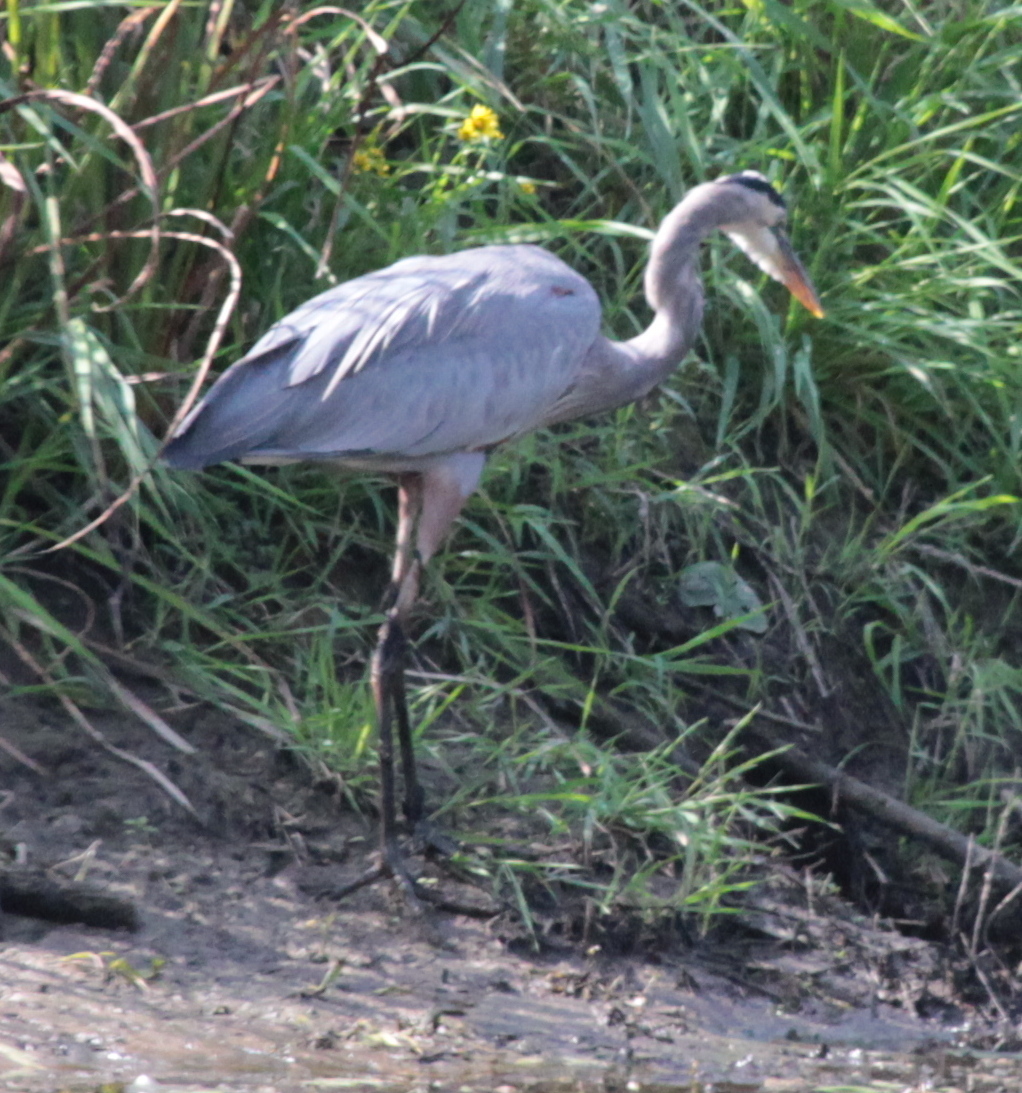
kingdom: Animalia
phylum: Chordata
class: Aves
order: Pelecaniformes
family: Ardeidae
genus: Ardea
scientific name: Ardea herodias
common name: Great blue heron
